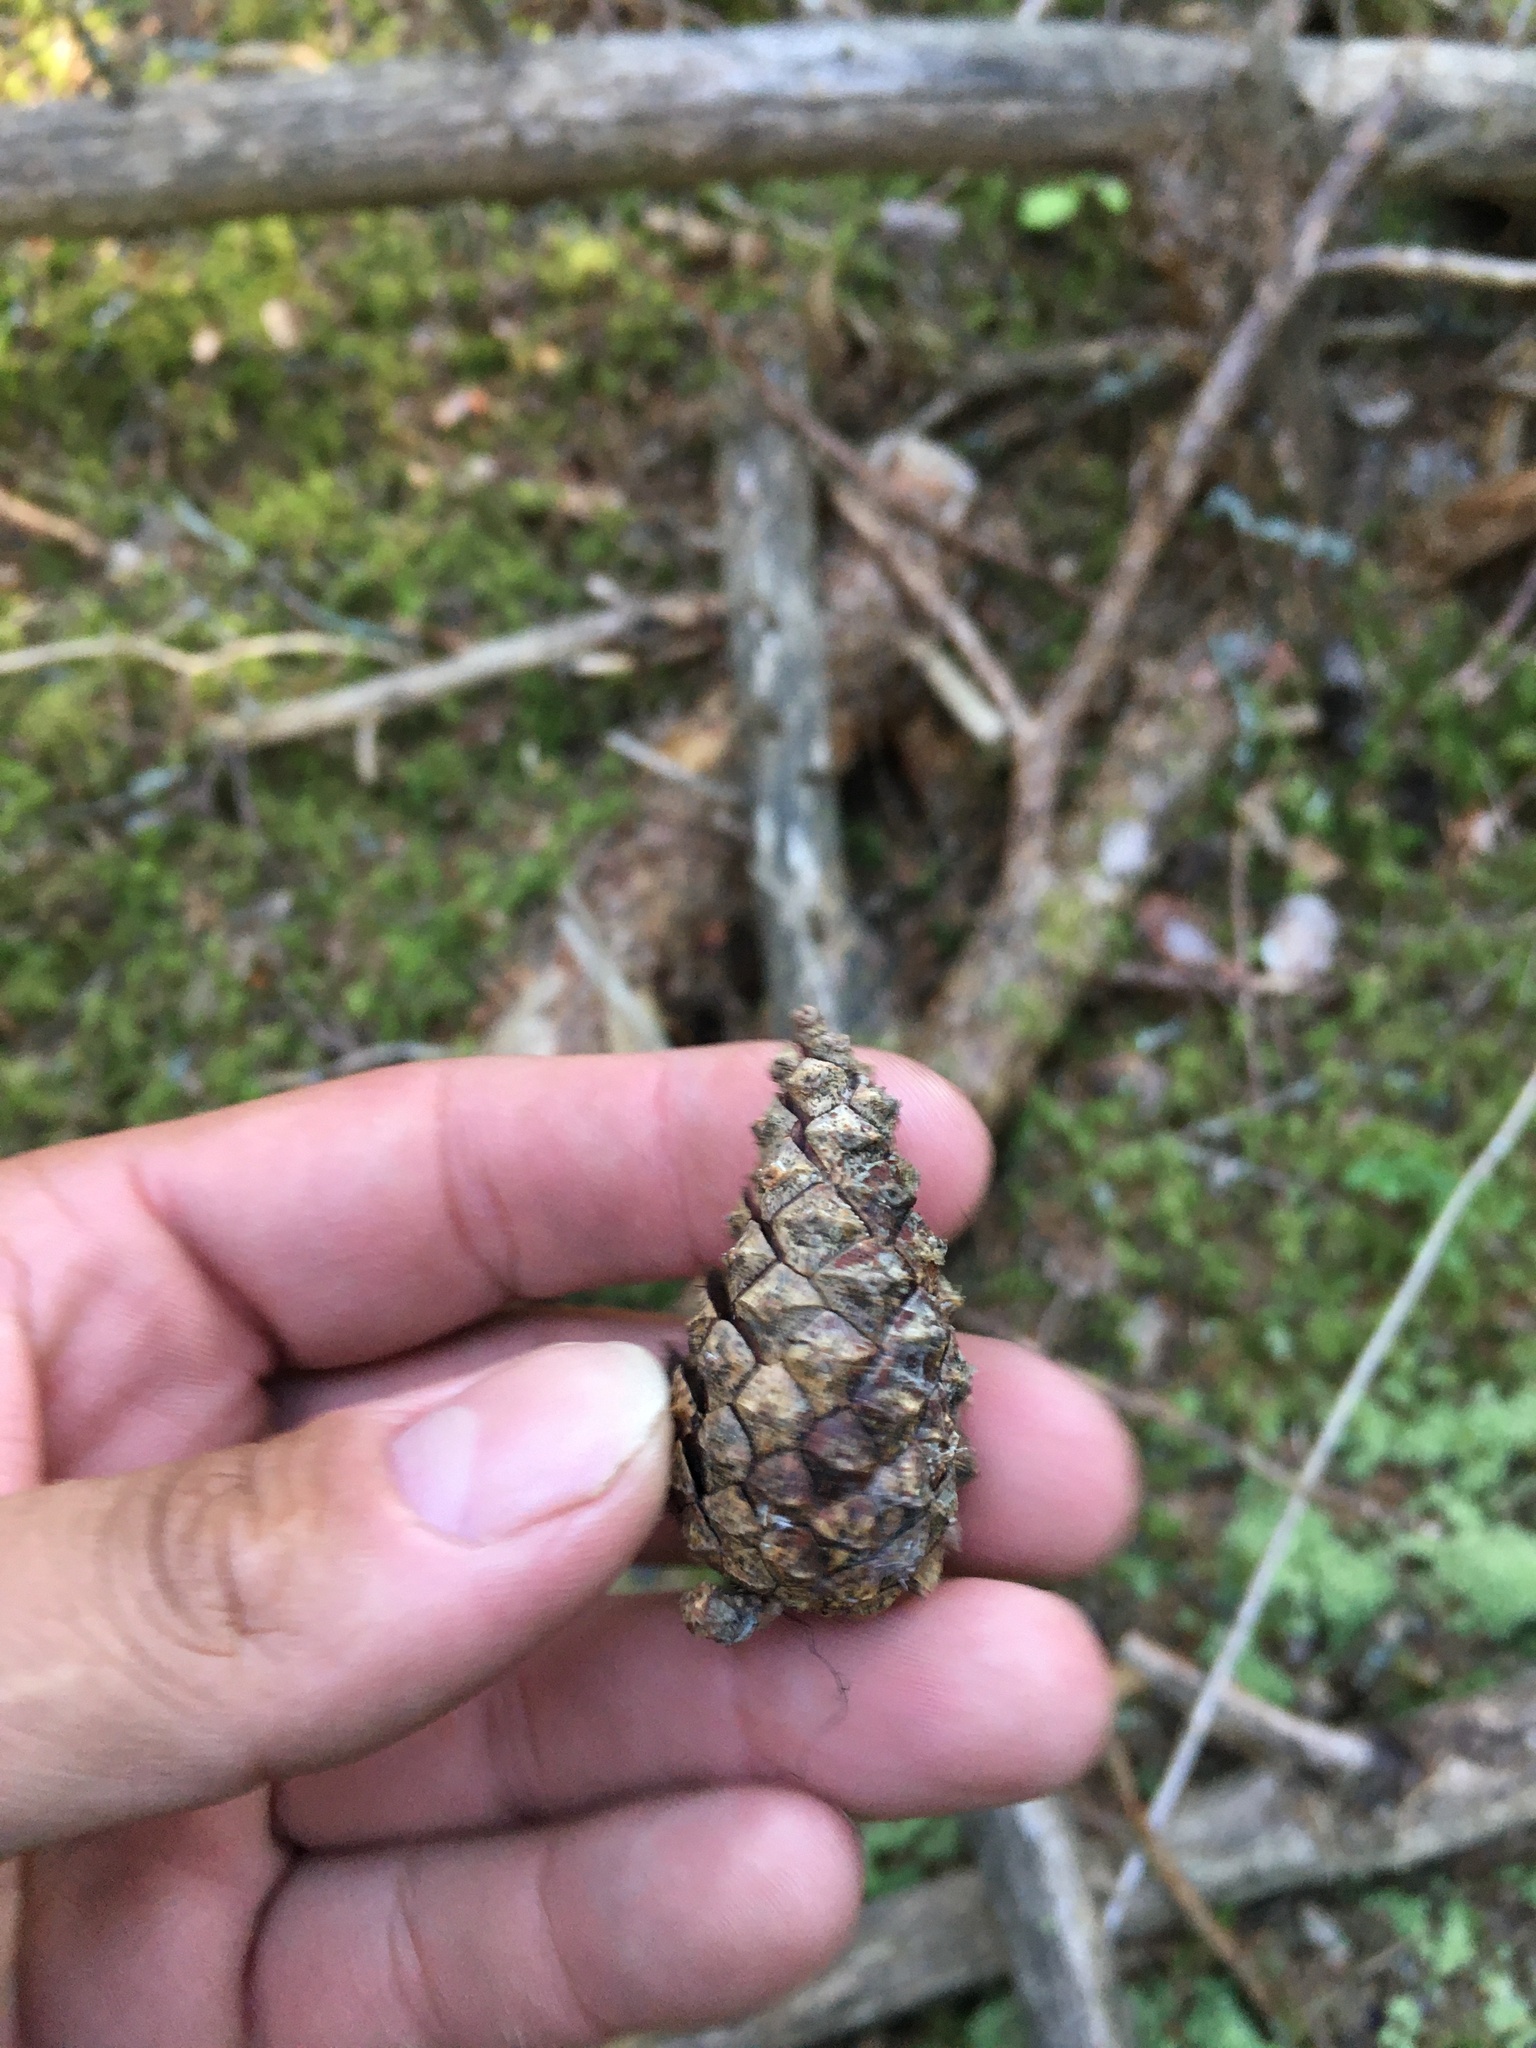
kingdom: Plantae
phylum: Tracheophyta
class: Pinopsida
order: Pinales
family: Pinaceae
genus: Pinus
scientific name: Pinus sylvestris
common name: Scots pine
